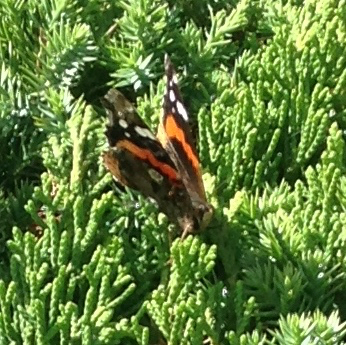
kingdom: Animalia
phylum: Arthropoda
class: Insecta
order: Lepidoptera
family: Nymphalidae
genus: Vanessa
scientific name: Vanessa atalanta
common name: Red admiral
